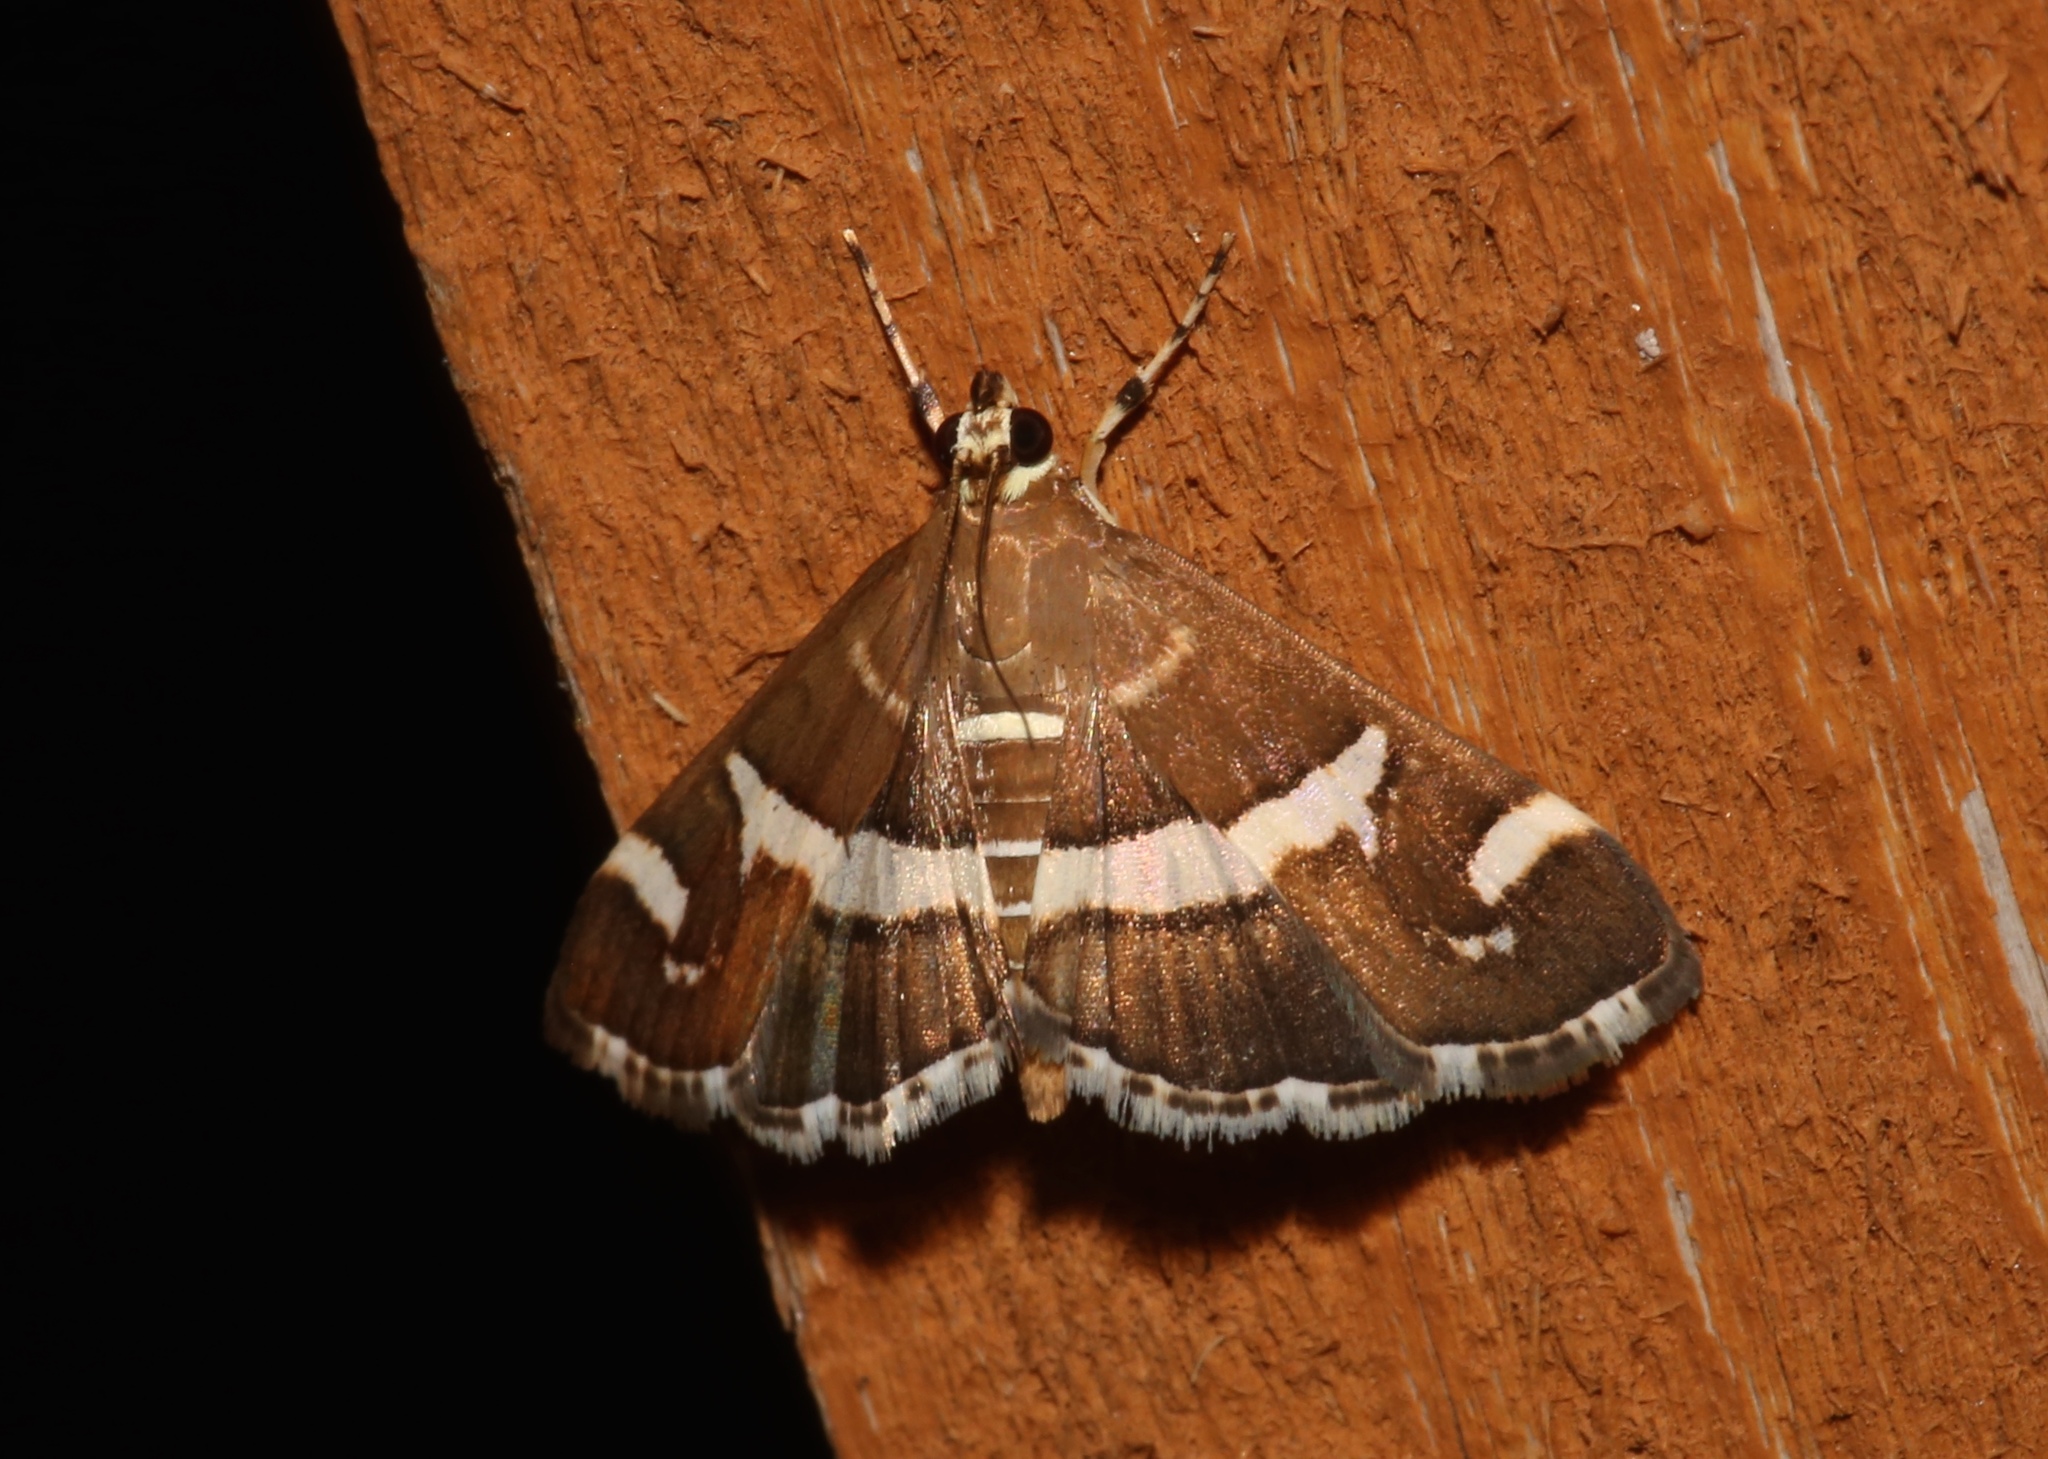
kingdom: Animalia
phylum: Arthropoda
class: Insecta
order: Lepidoptera
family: Crambidae
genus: Spoladea
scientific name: Spoladea recurvalis
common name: Beet webworm moth
